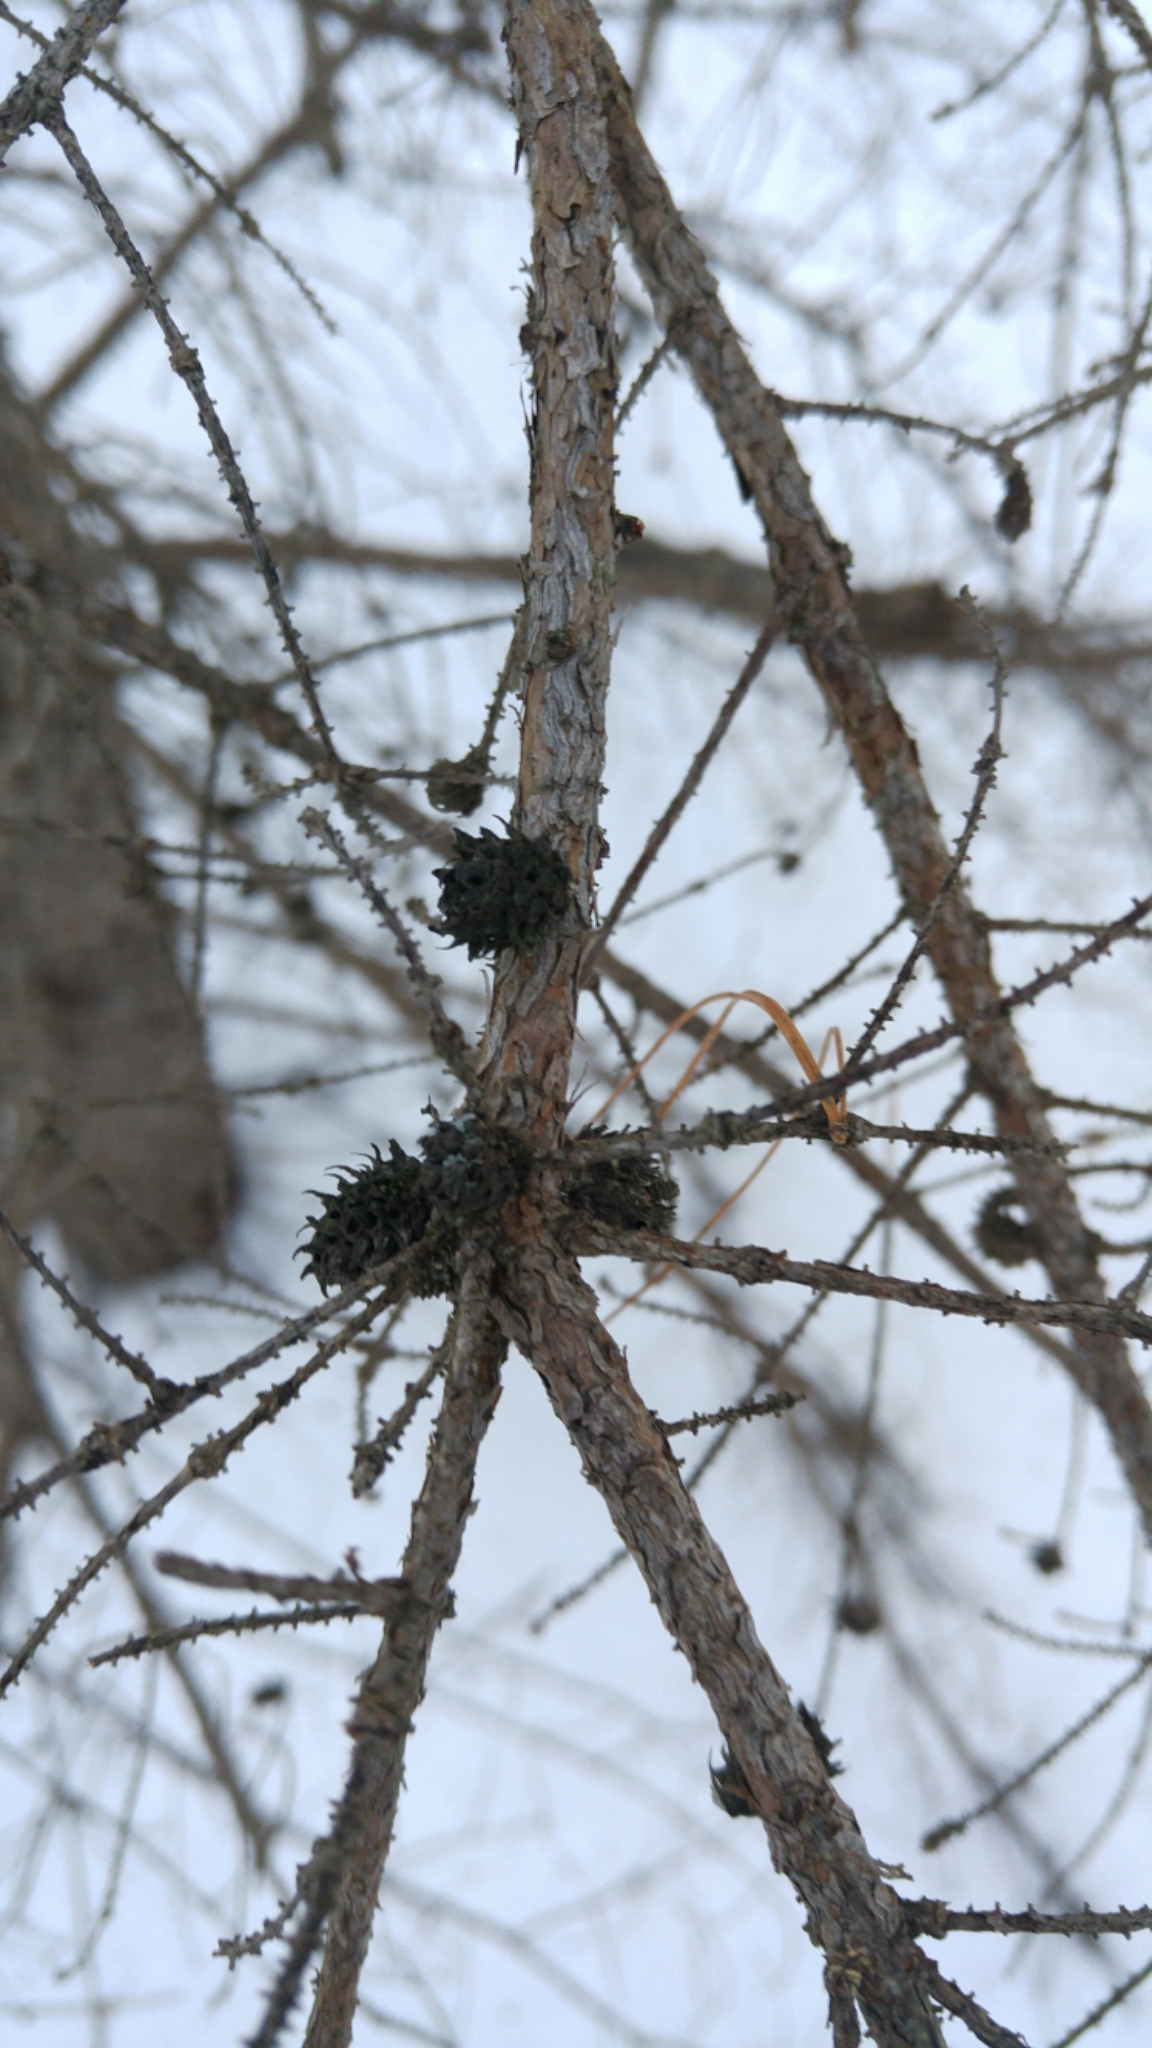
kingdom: Plantae
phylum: Tracheophyta
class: Pinopsida
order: Pinales
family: Pinaceae
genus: Picea
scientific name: Picea glauca
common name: White spruce
